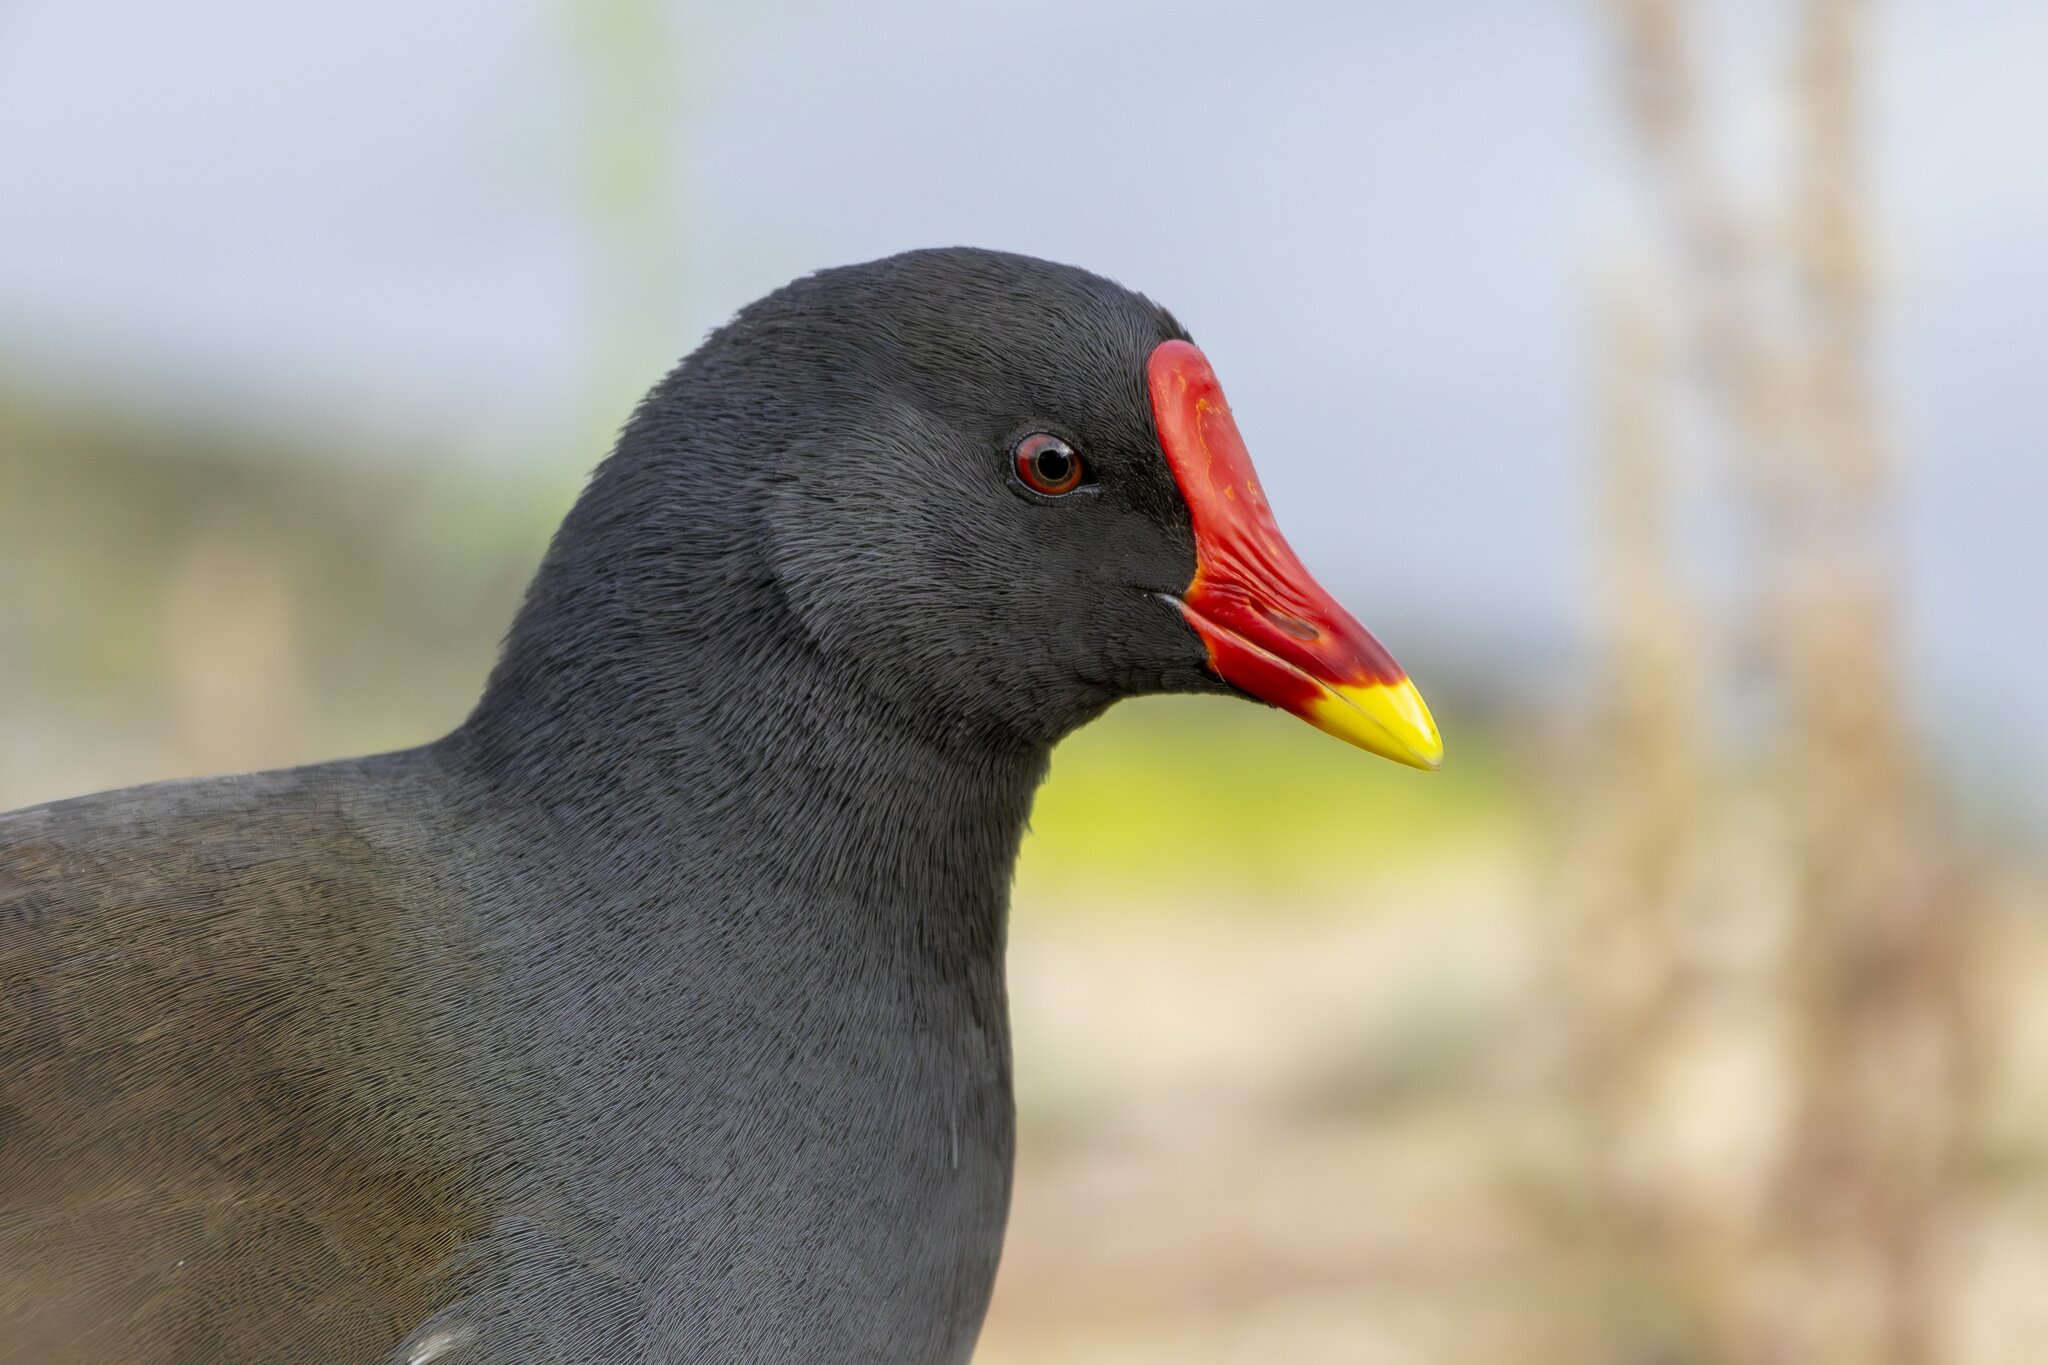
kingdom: Animalia
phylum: Chordata
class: Aves
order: Gruiformes
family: Rallidae
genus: Gallinula
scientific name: Gallinula chloropus
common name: Common moorhen
